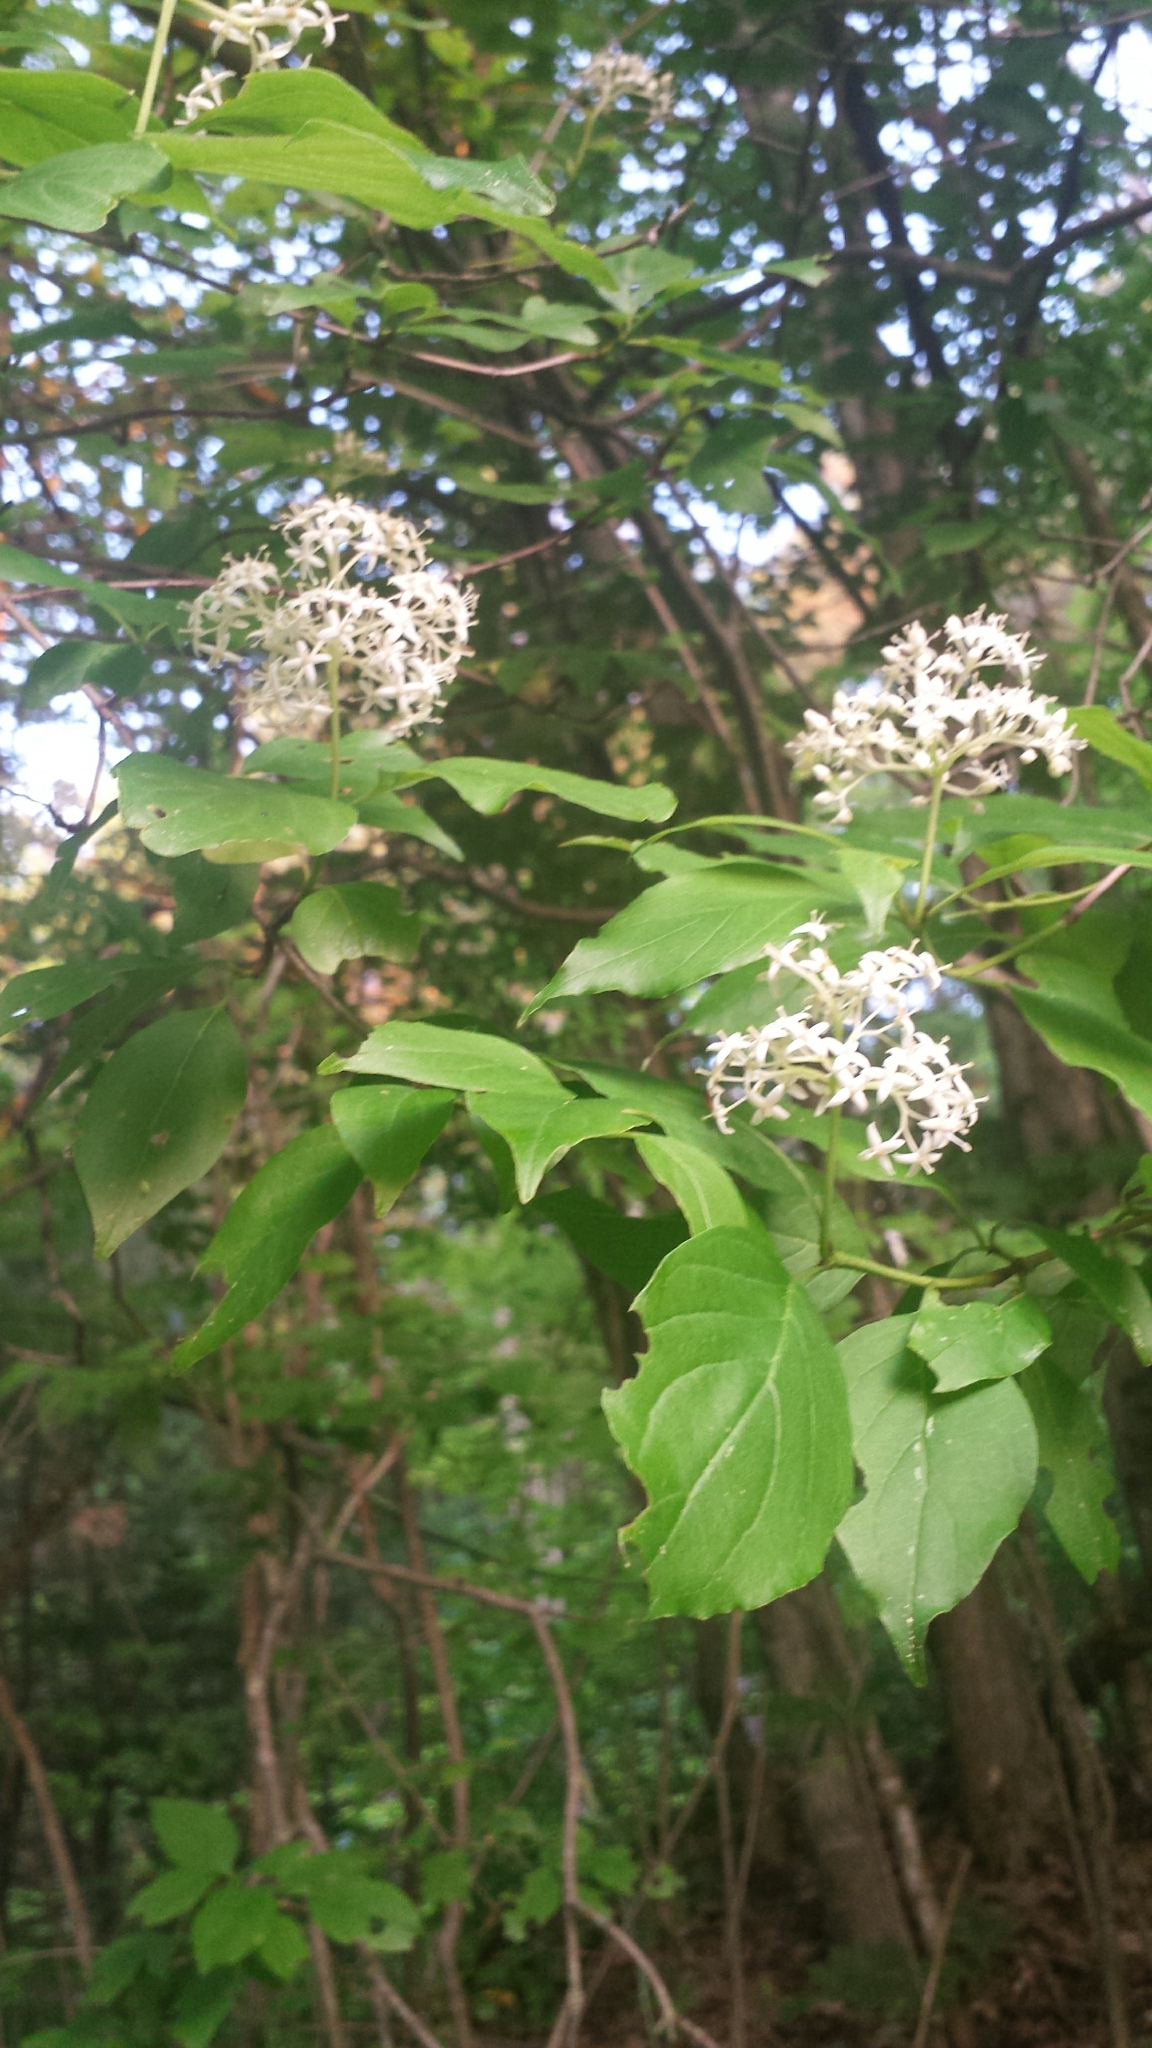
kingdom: Plantae
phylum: Tracheophyta
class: Magnoliopsida
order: Cornales
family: Cornaceae
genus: Cornus
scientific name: Cornus racemosa
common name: Panicled dogwood
